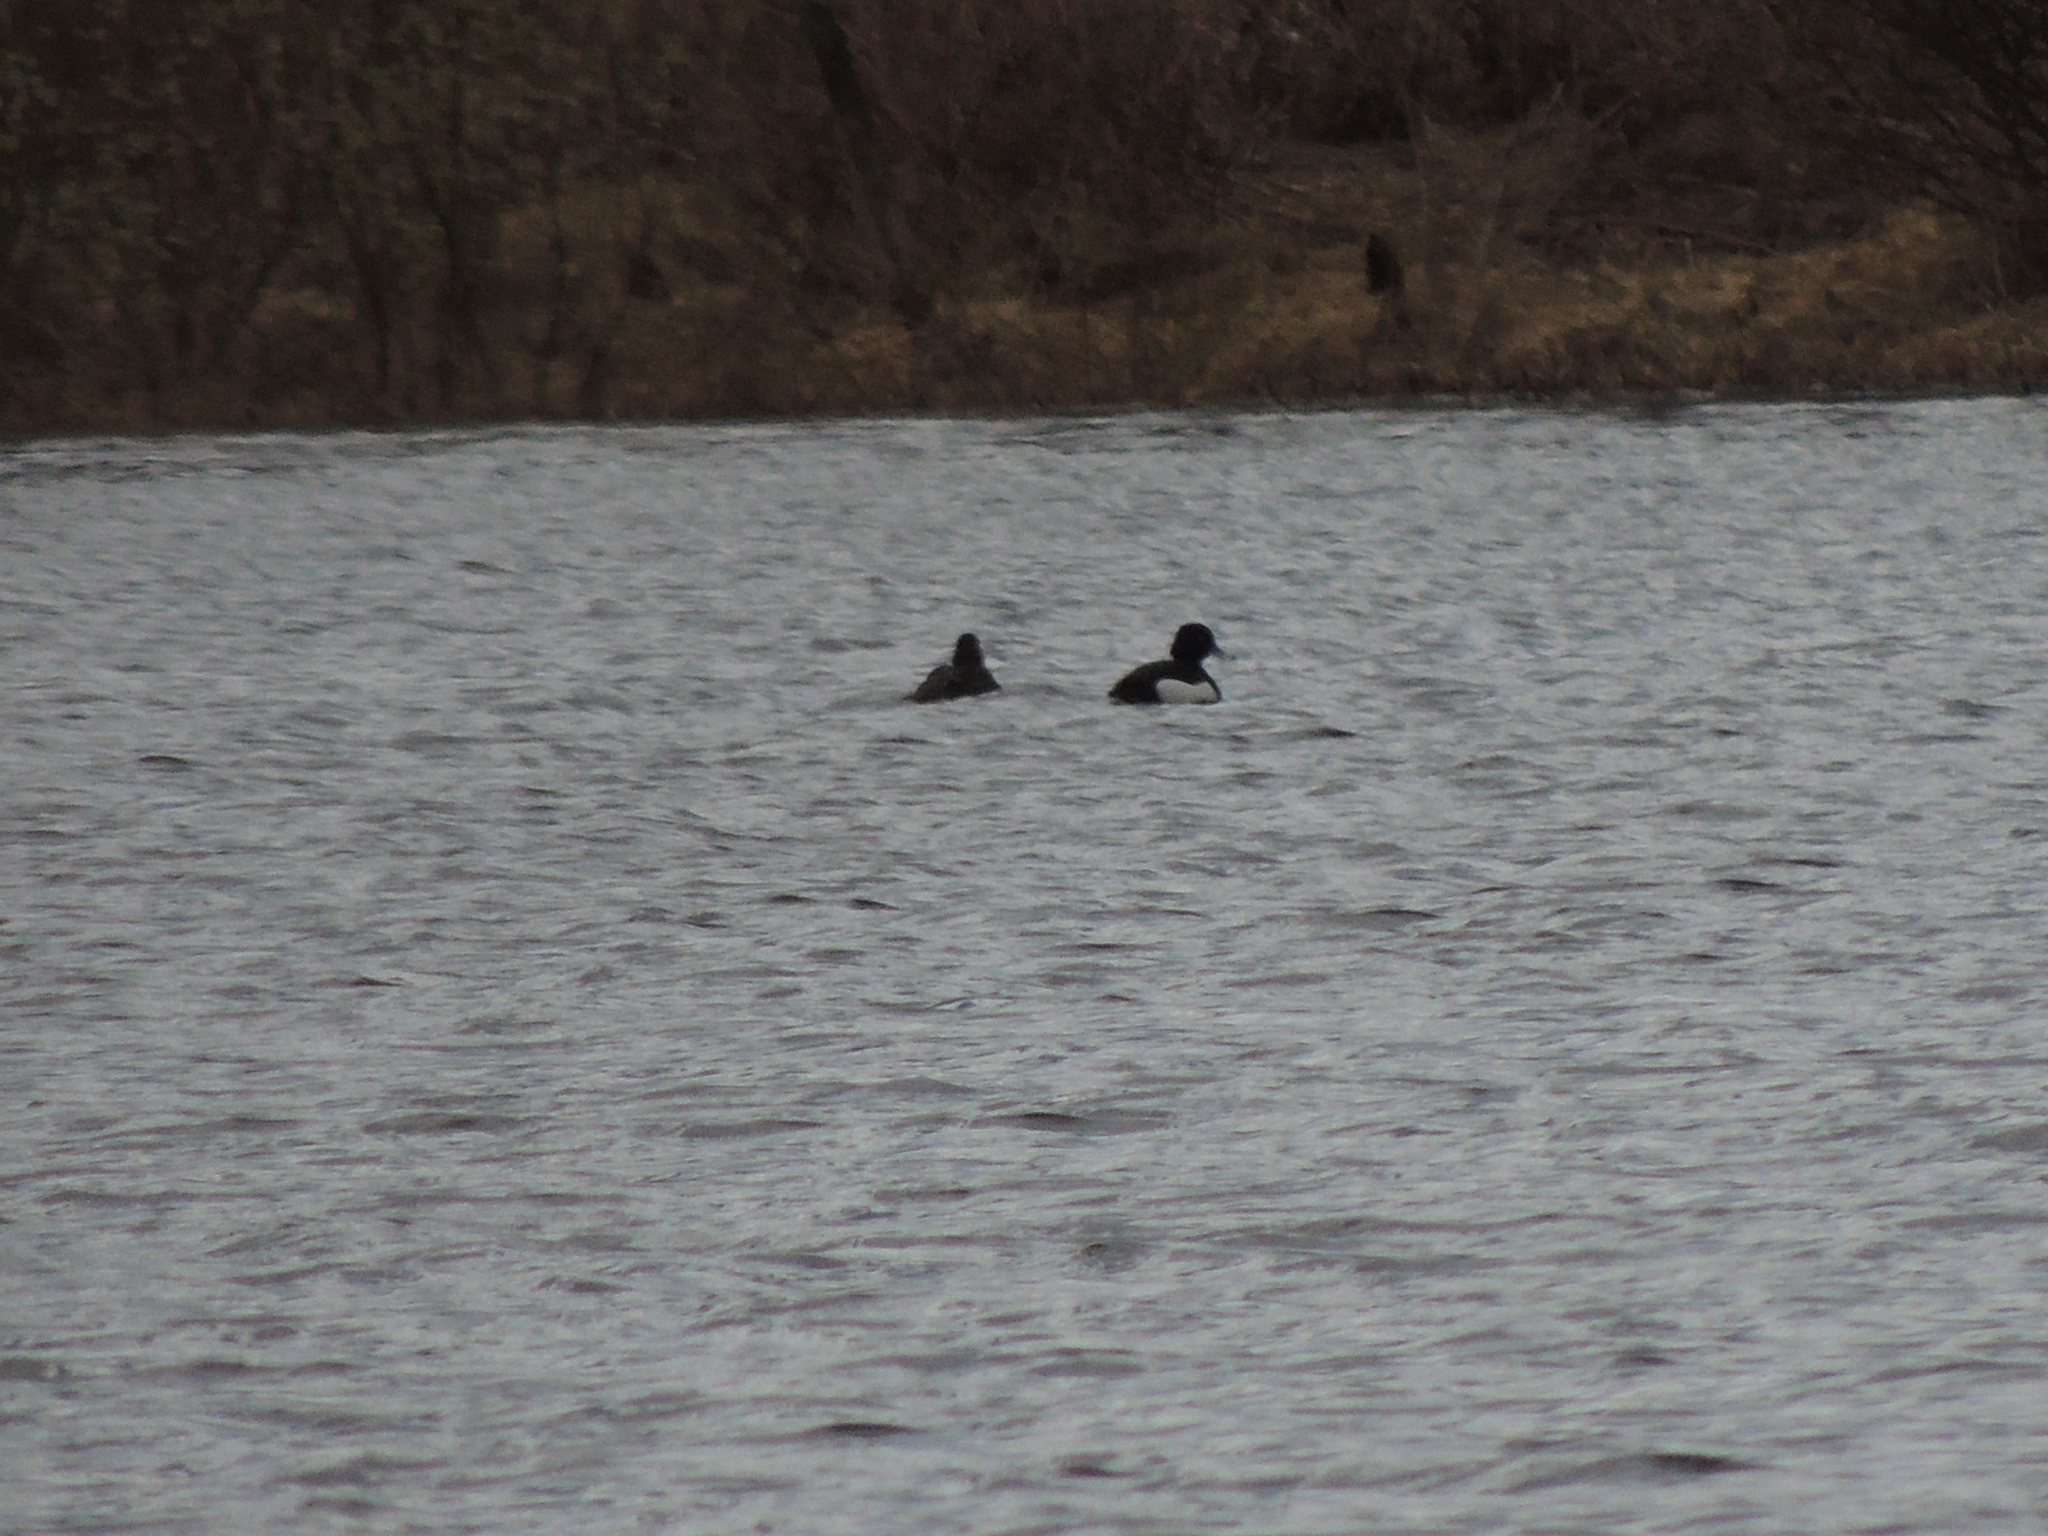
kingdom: Animalia
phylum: Chordata
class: Aves
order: Anseriformes
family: Anatidae
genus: Aythya
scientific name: Aythya fuligula
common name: Tufted duck
